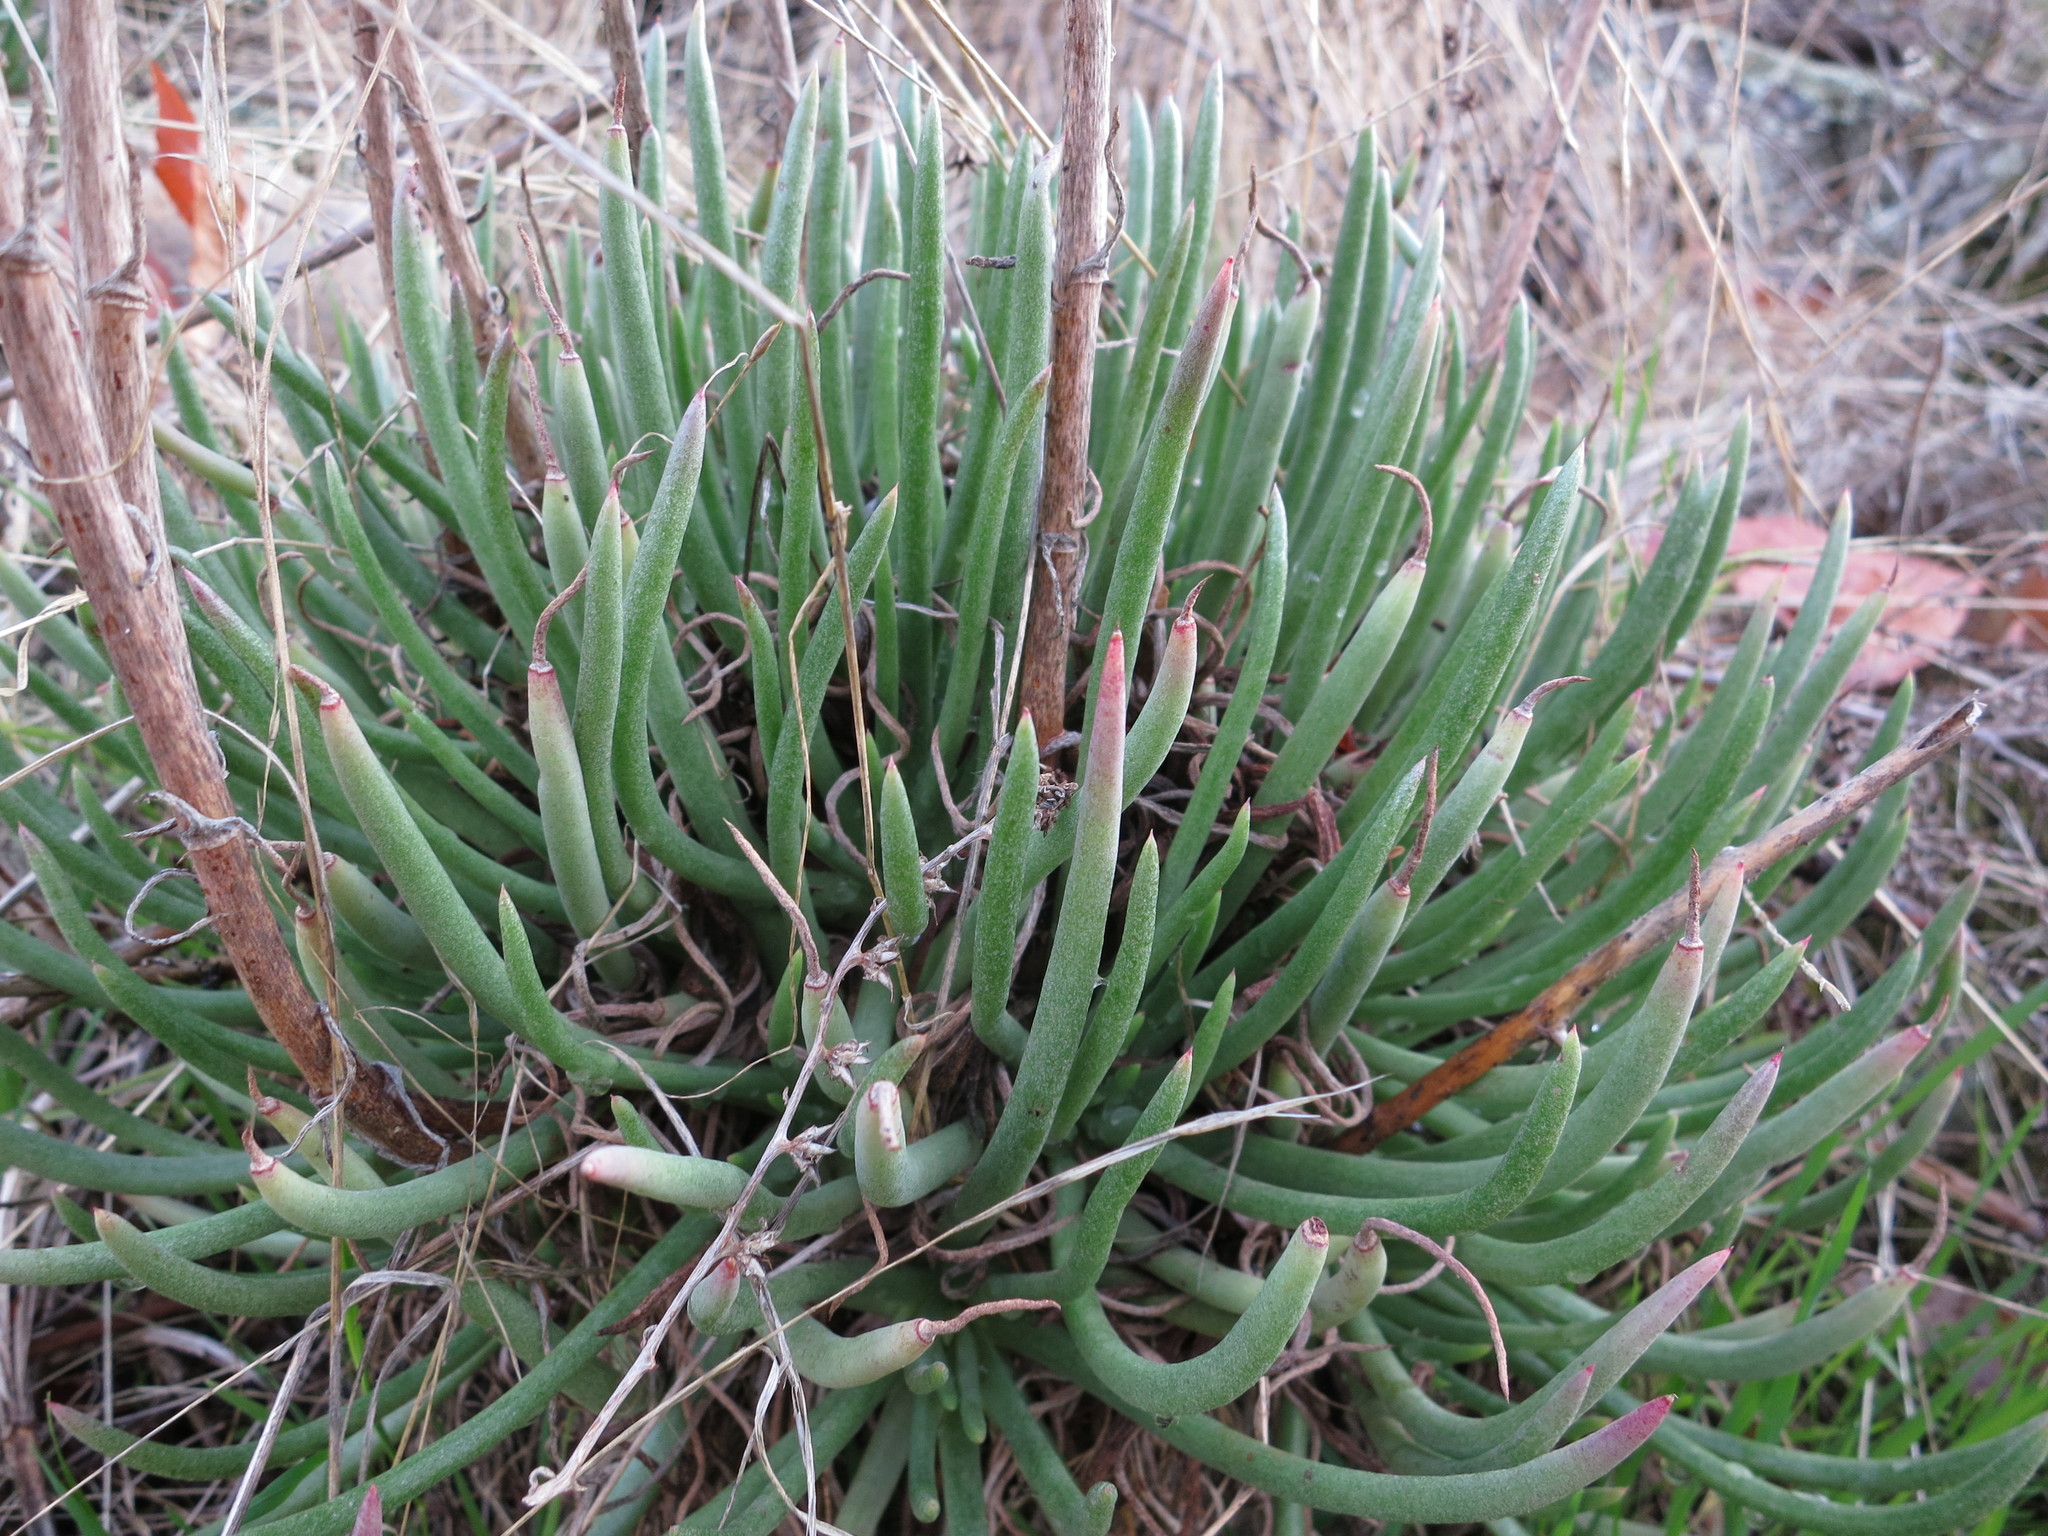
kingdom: Plantae
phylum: Tracheophyta
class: Magnoliopsida
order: Saxifragales
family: Crassulaceae
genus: Dudleya
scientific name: Dudleya edulis
